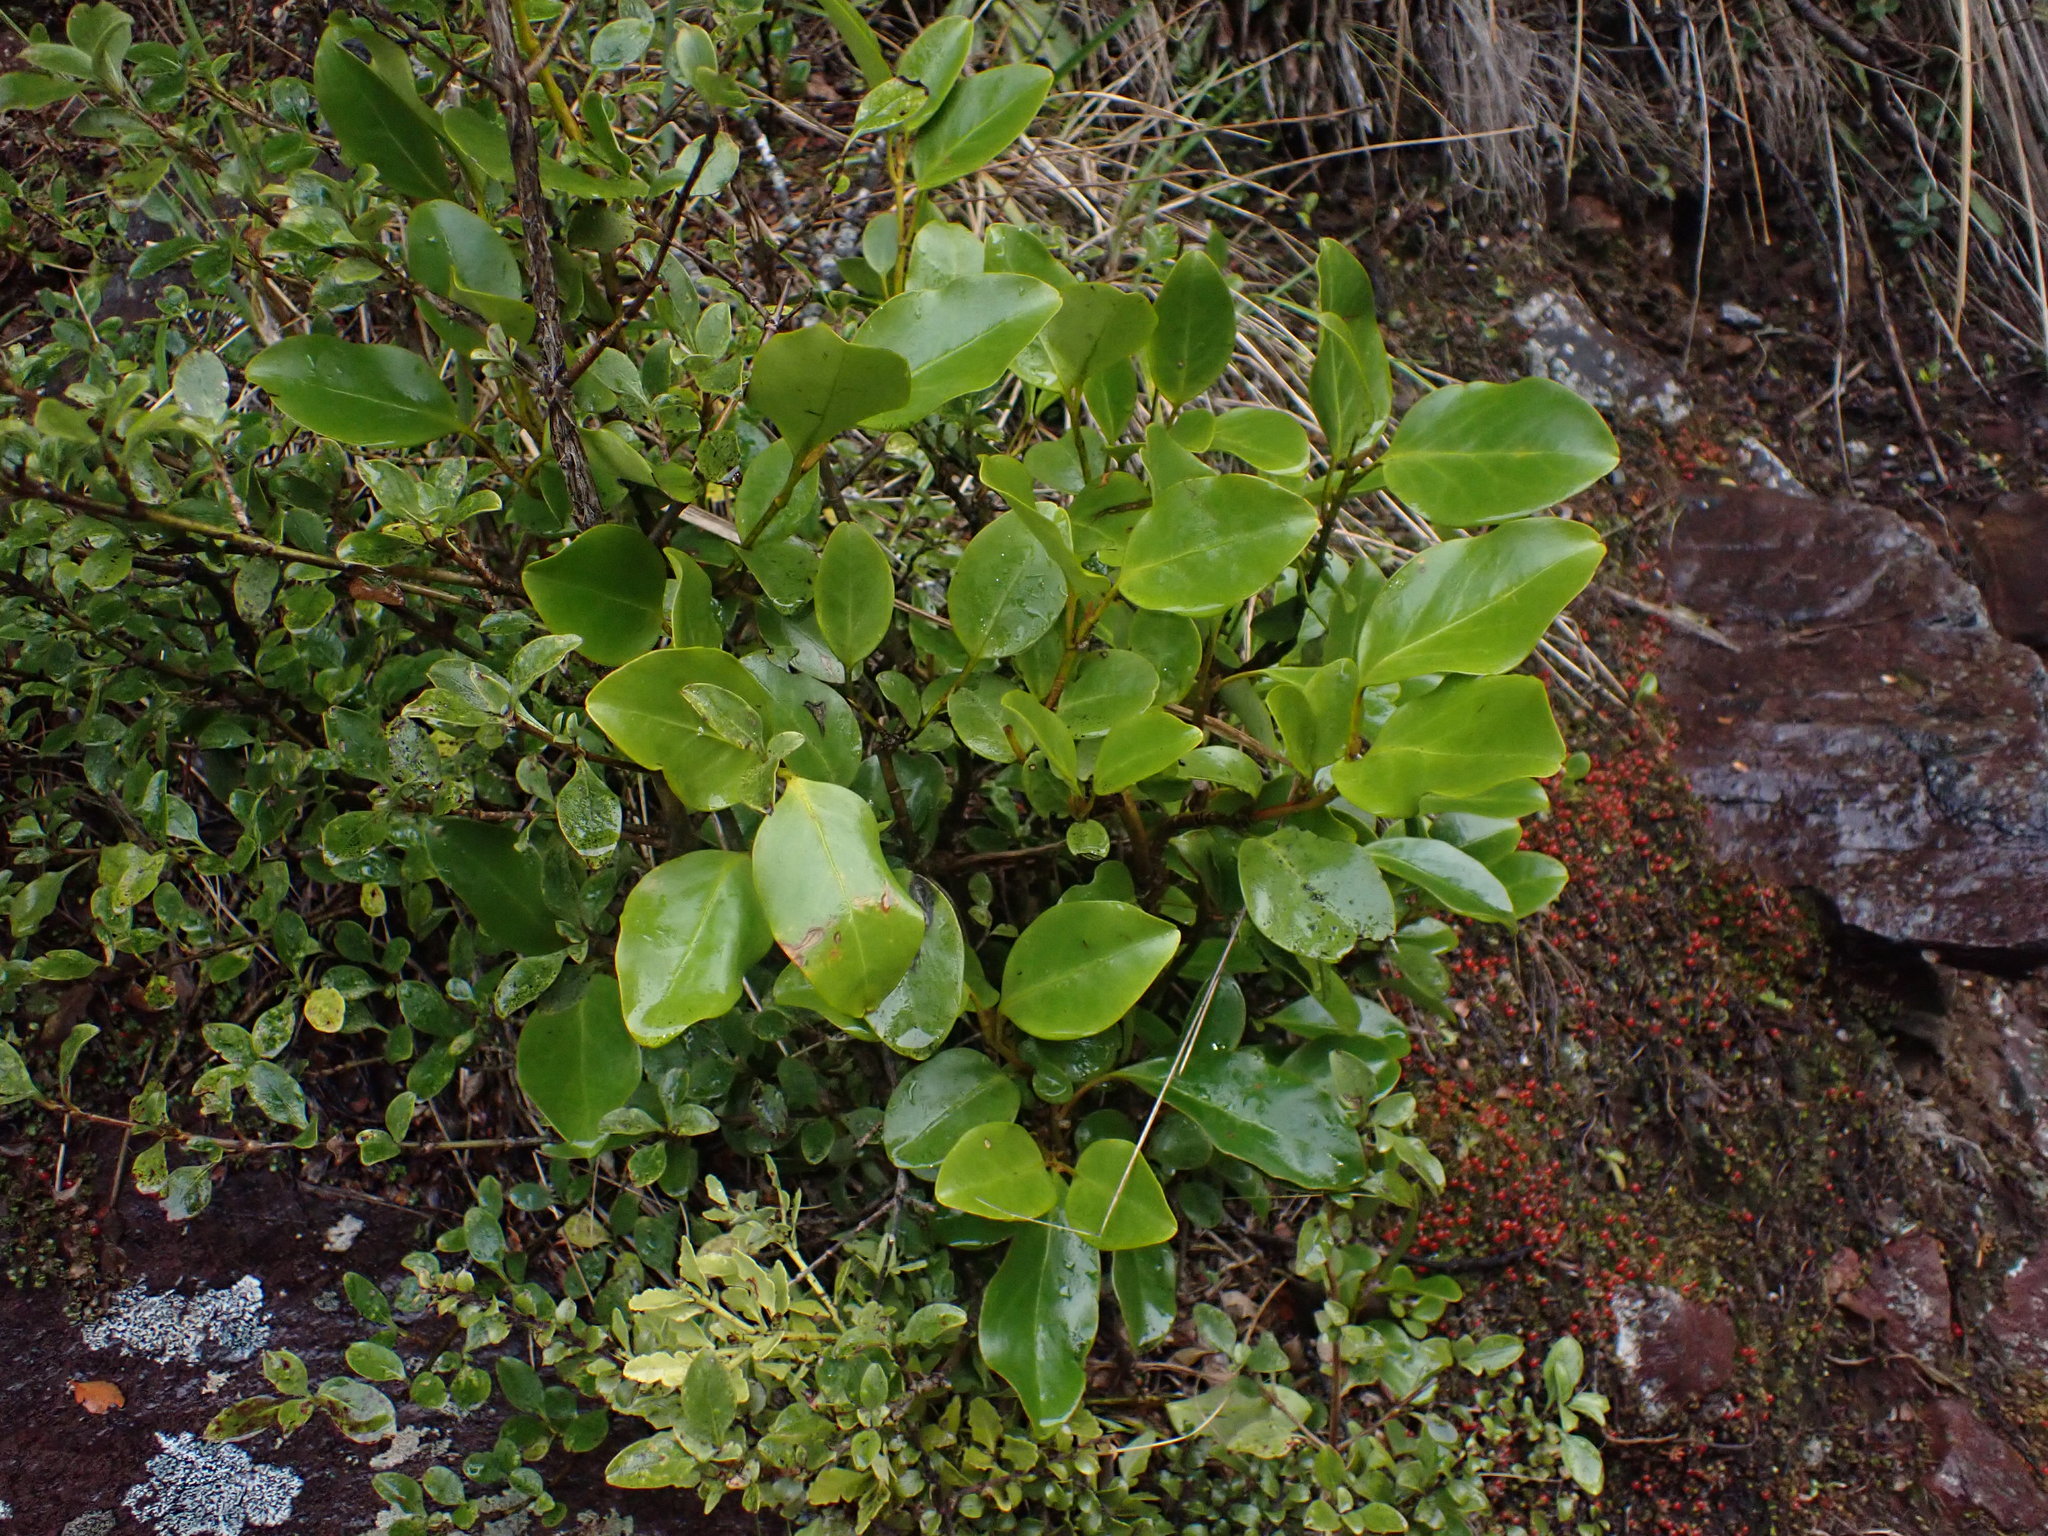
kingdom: Plantae
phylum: Tracheophyta
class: Magnoliopsida
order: Apiales
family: Griseliniaceae
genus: Griselinia
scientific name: Griselinia littoralis
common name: New zealand broadleaf
